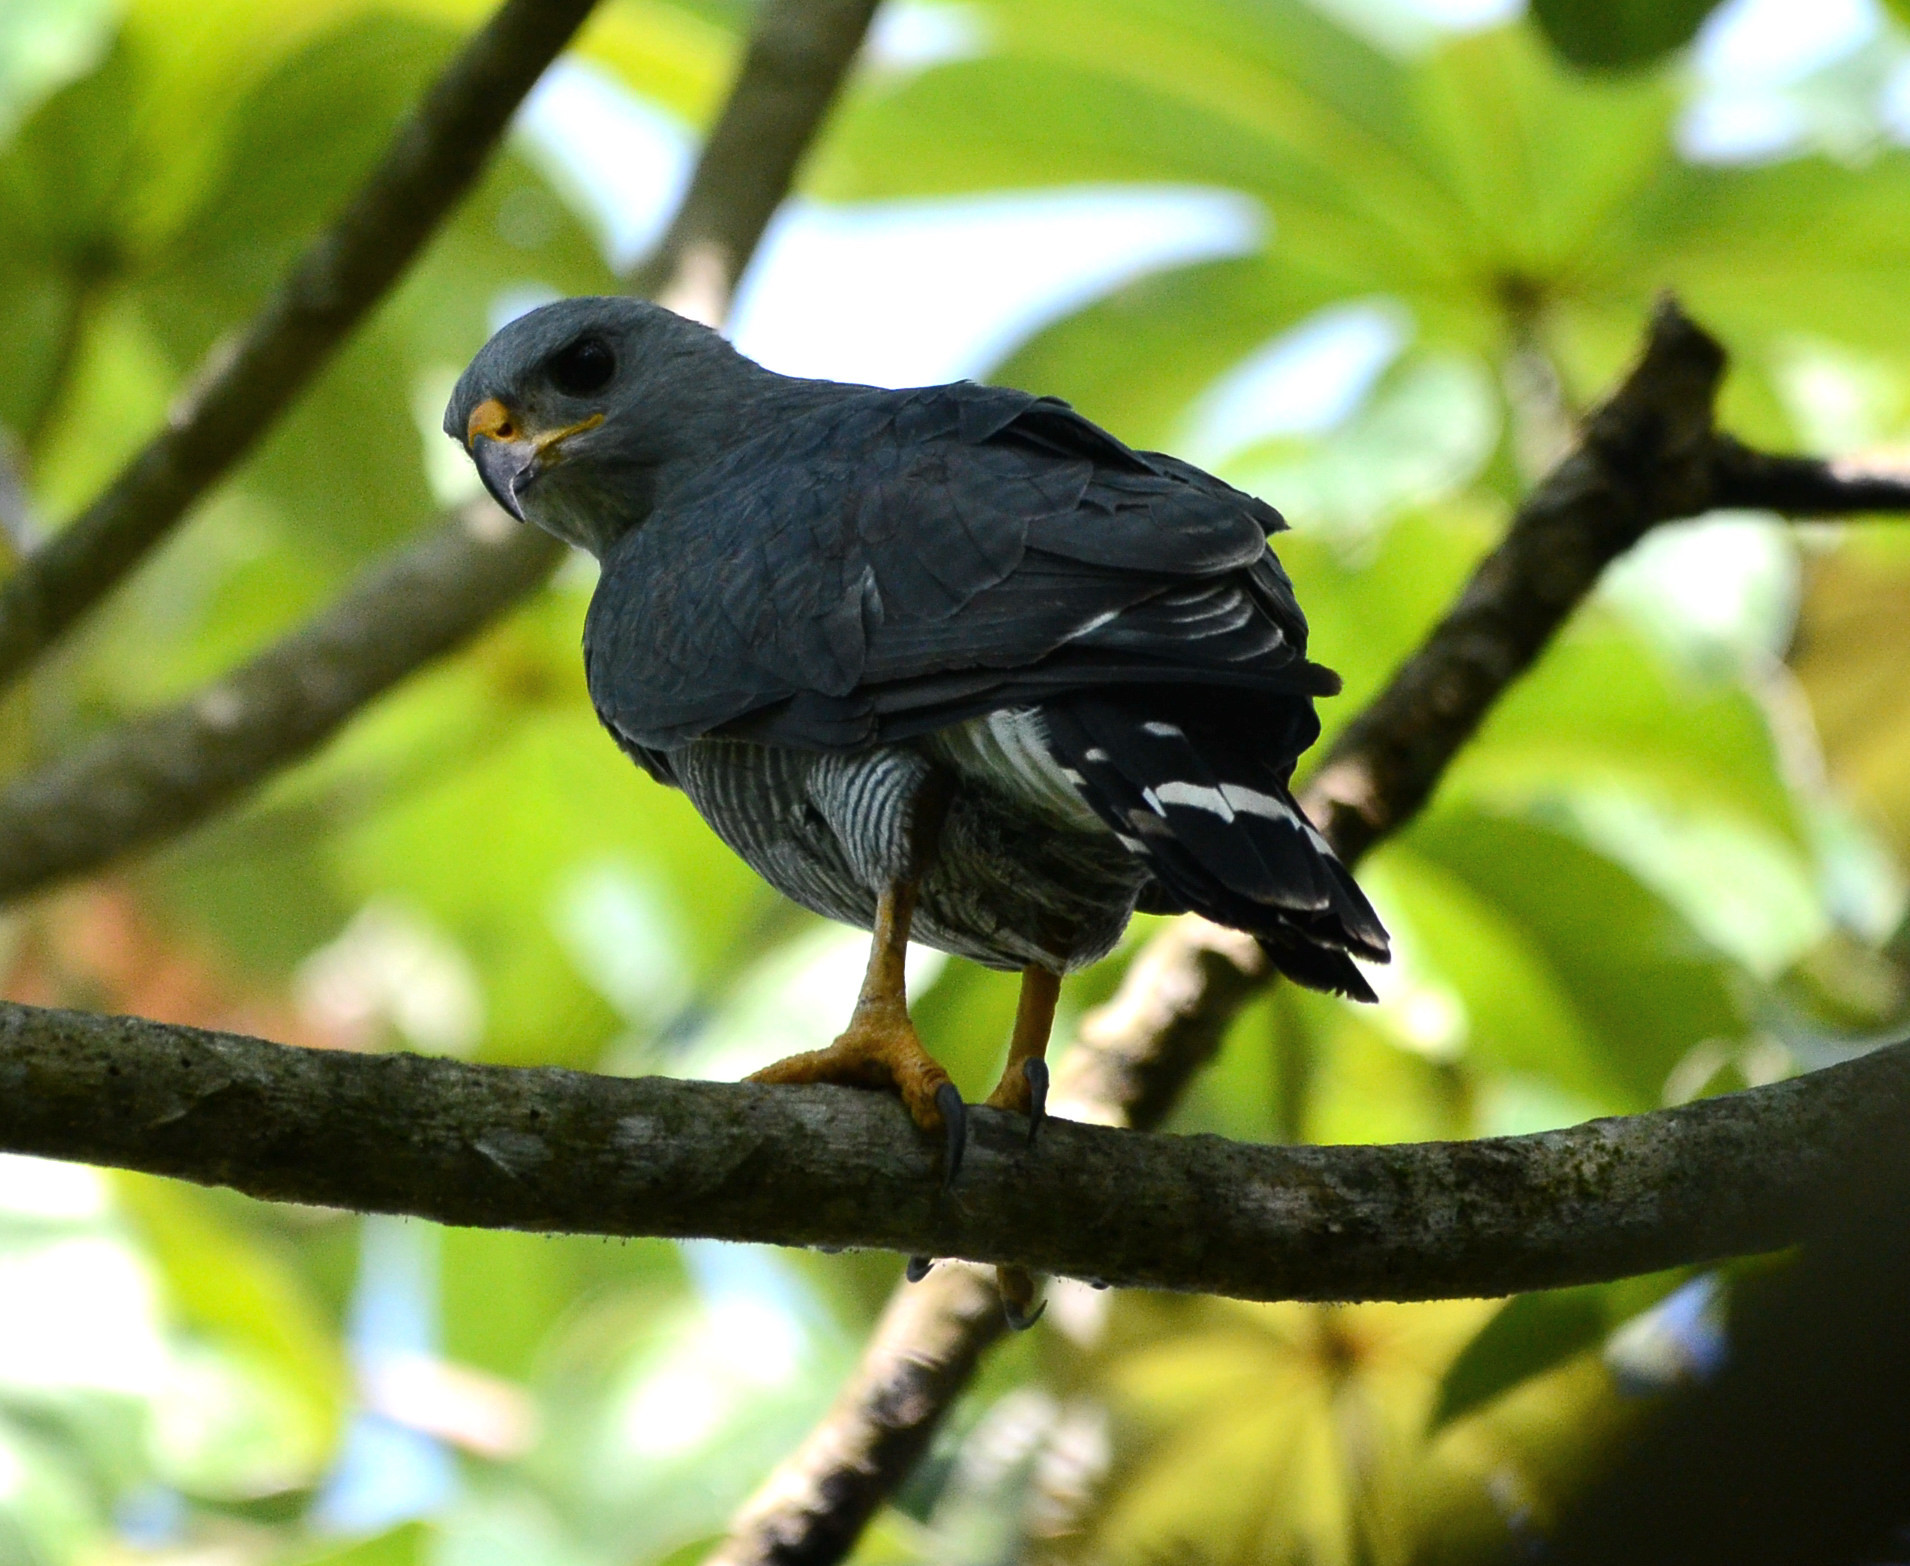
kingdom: Animalia
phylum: Chordata
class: Aves
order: Accipitriformes
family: Accipitridae
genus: Buteo
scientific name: Buteo nitidus
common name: Grey-lined hawk
